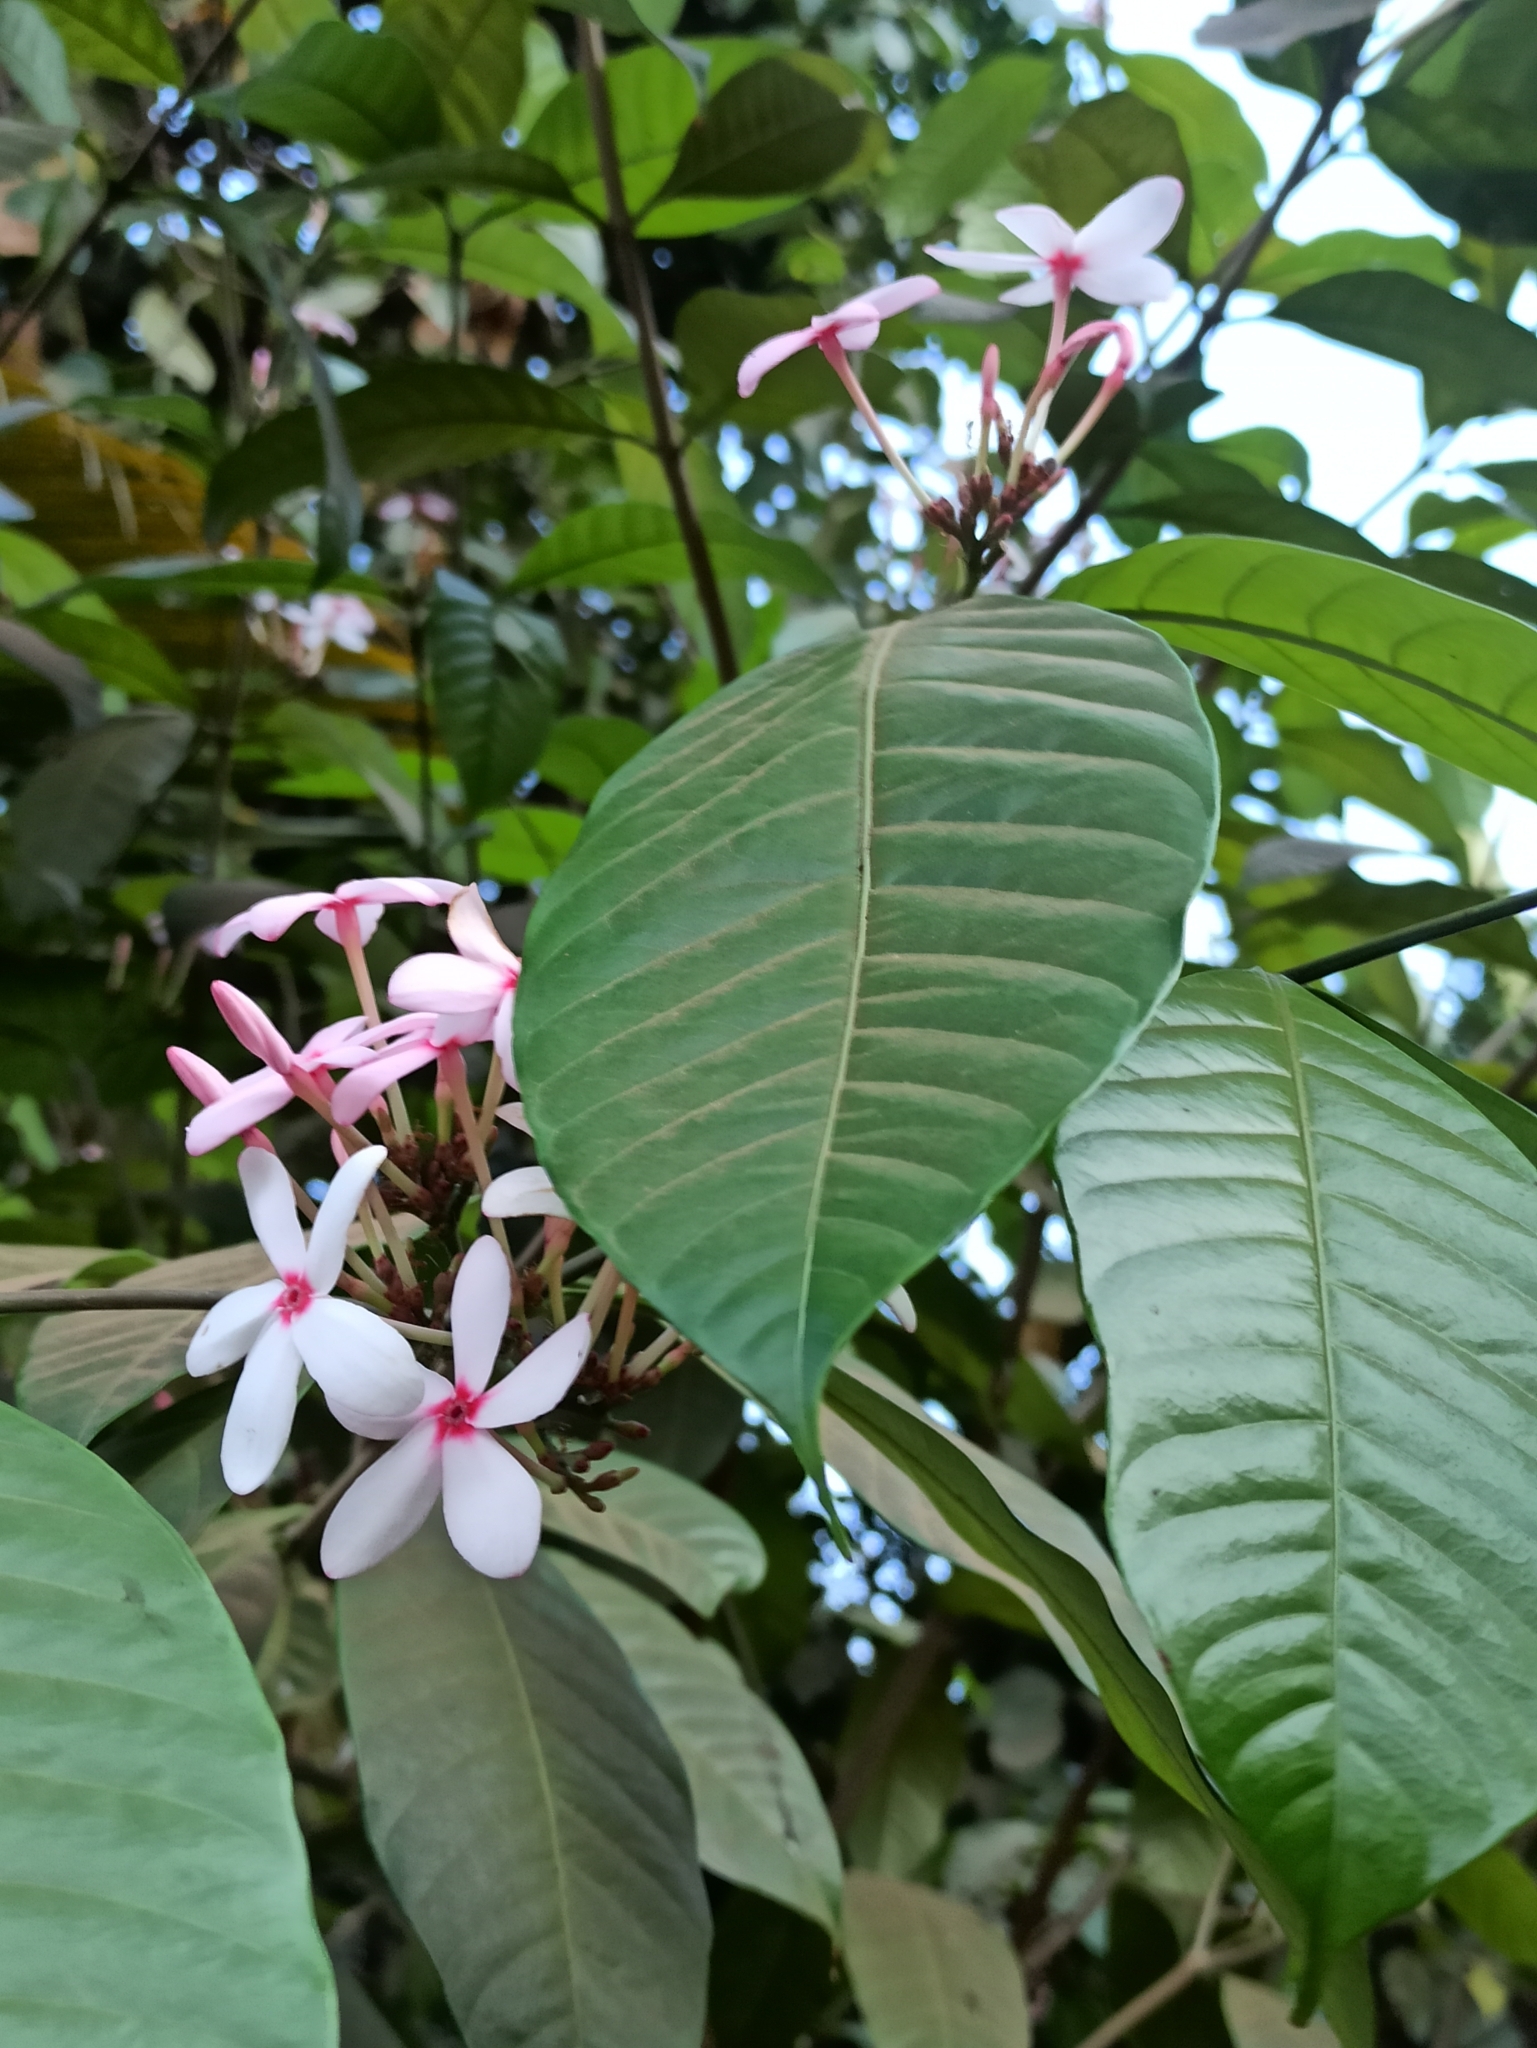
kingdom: Plantae
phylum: Tracheophyta
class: Magnoliopsida
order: Gentianales
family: Apocynaceae
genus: Kopsia
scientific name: Kopsia fruticosa
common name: Shrub-vinca
